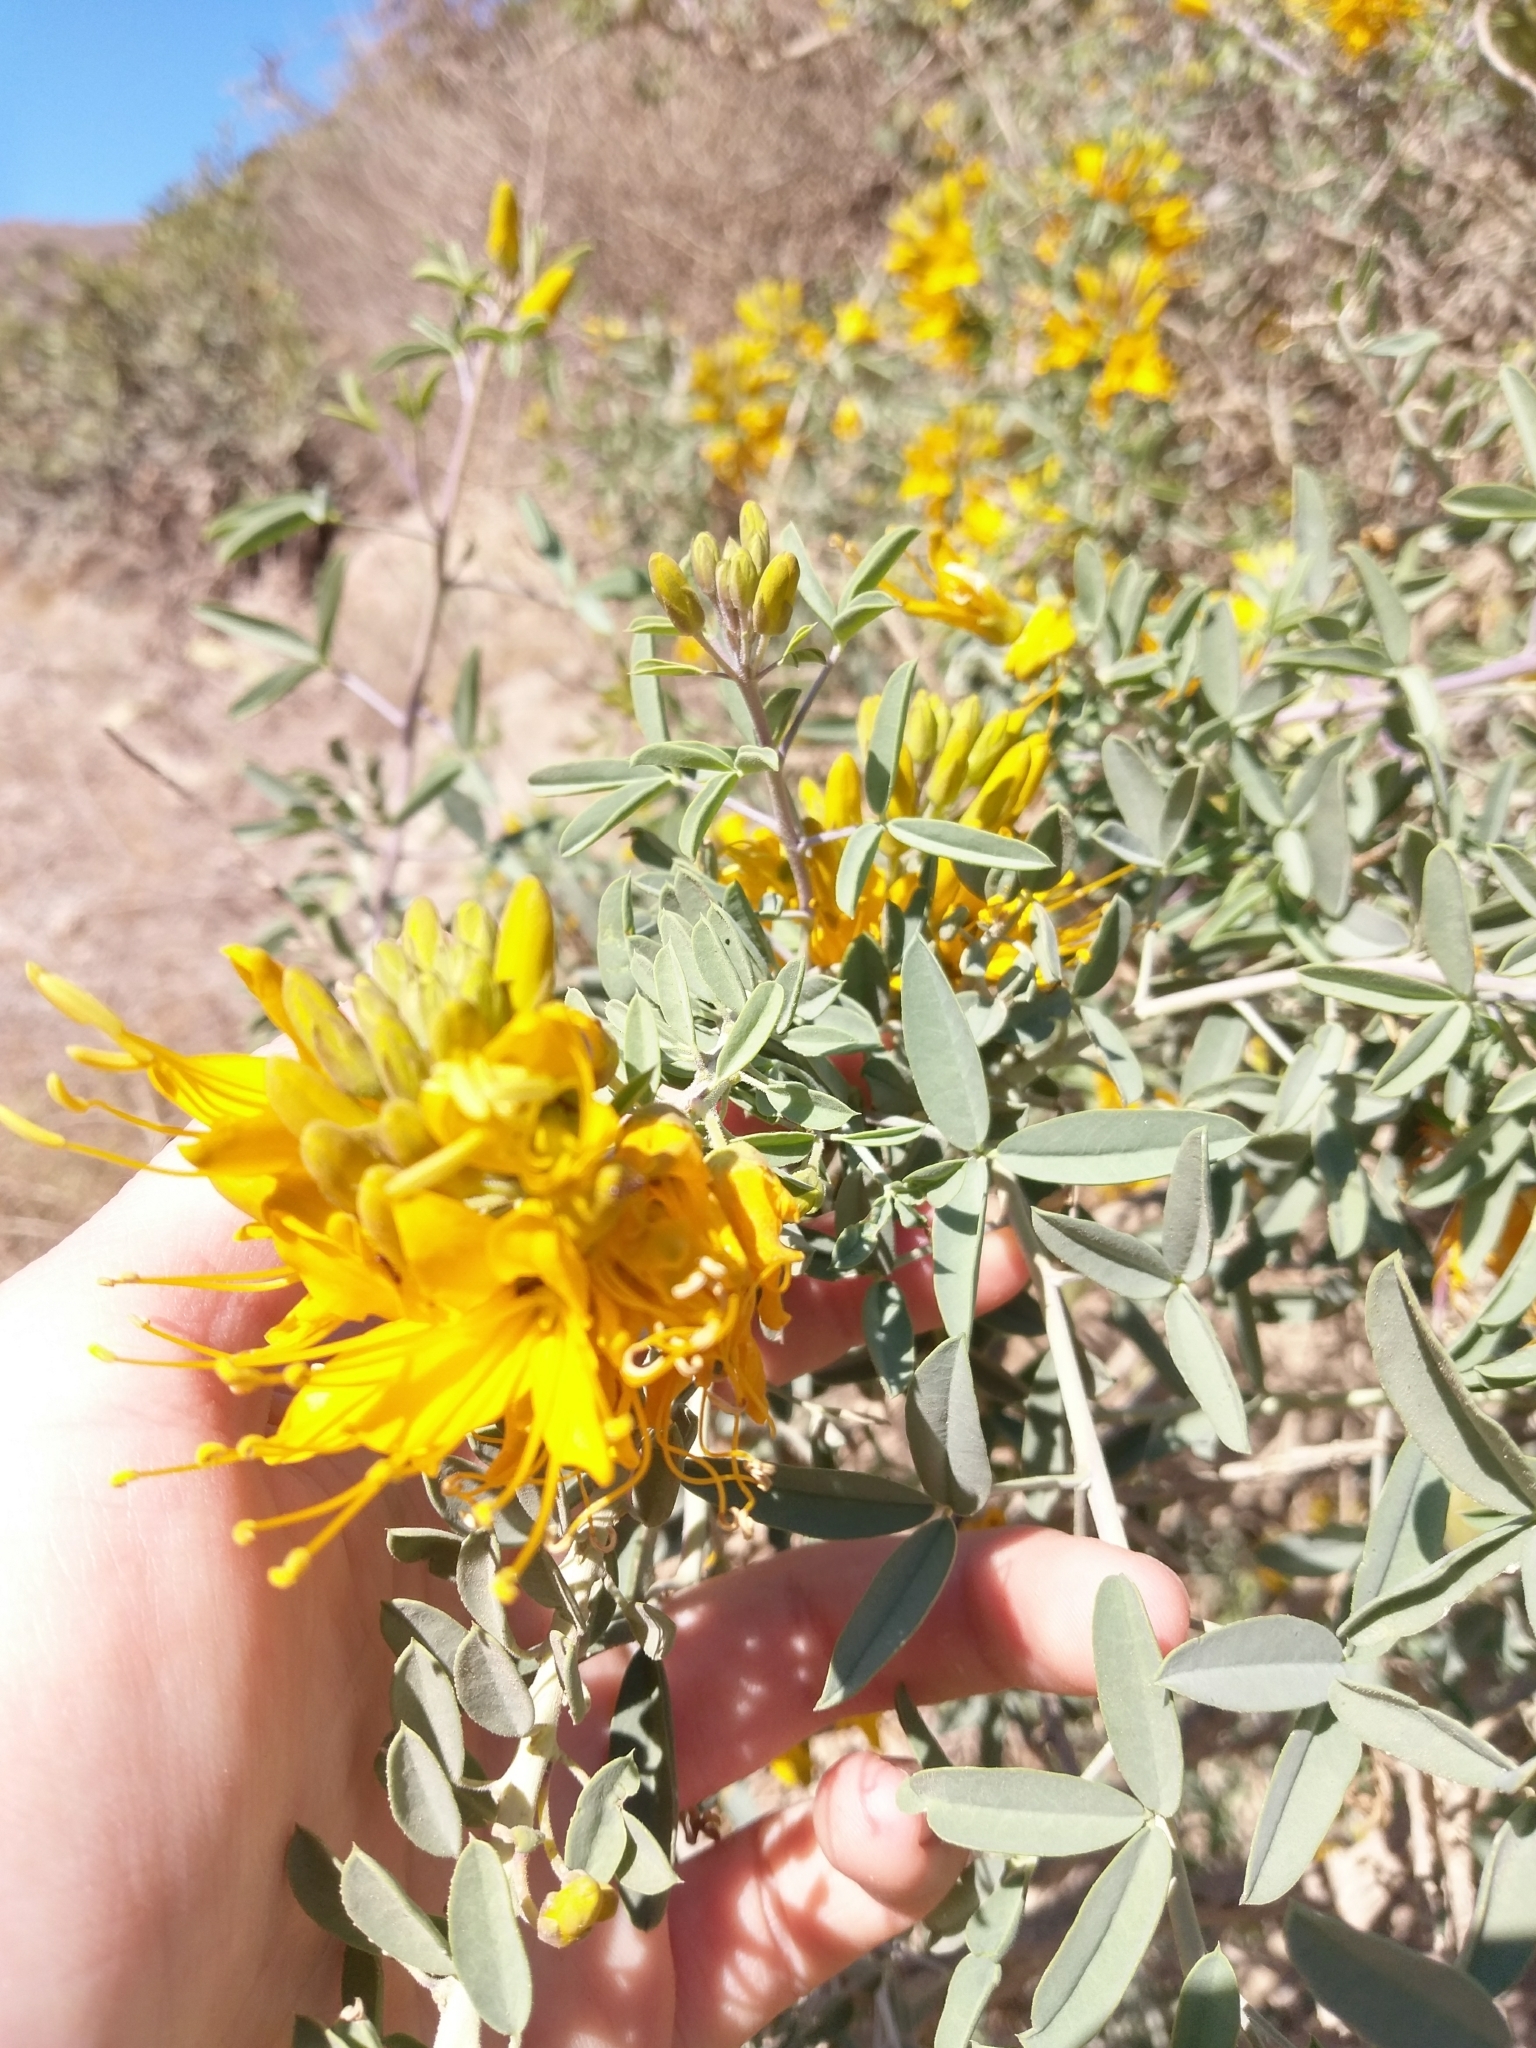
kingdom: Plantae
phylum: Tracheophyta
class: Magnoliopsida
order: Brassicales
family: Cleomaceae
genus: Cleomella
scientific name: Cleomella arborea
